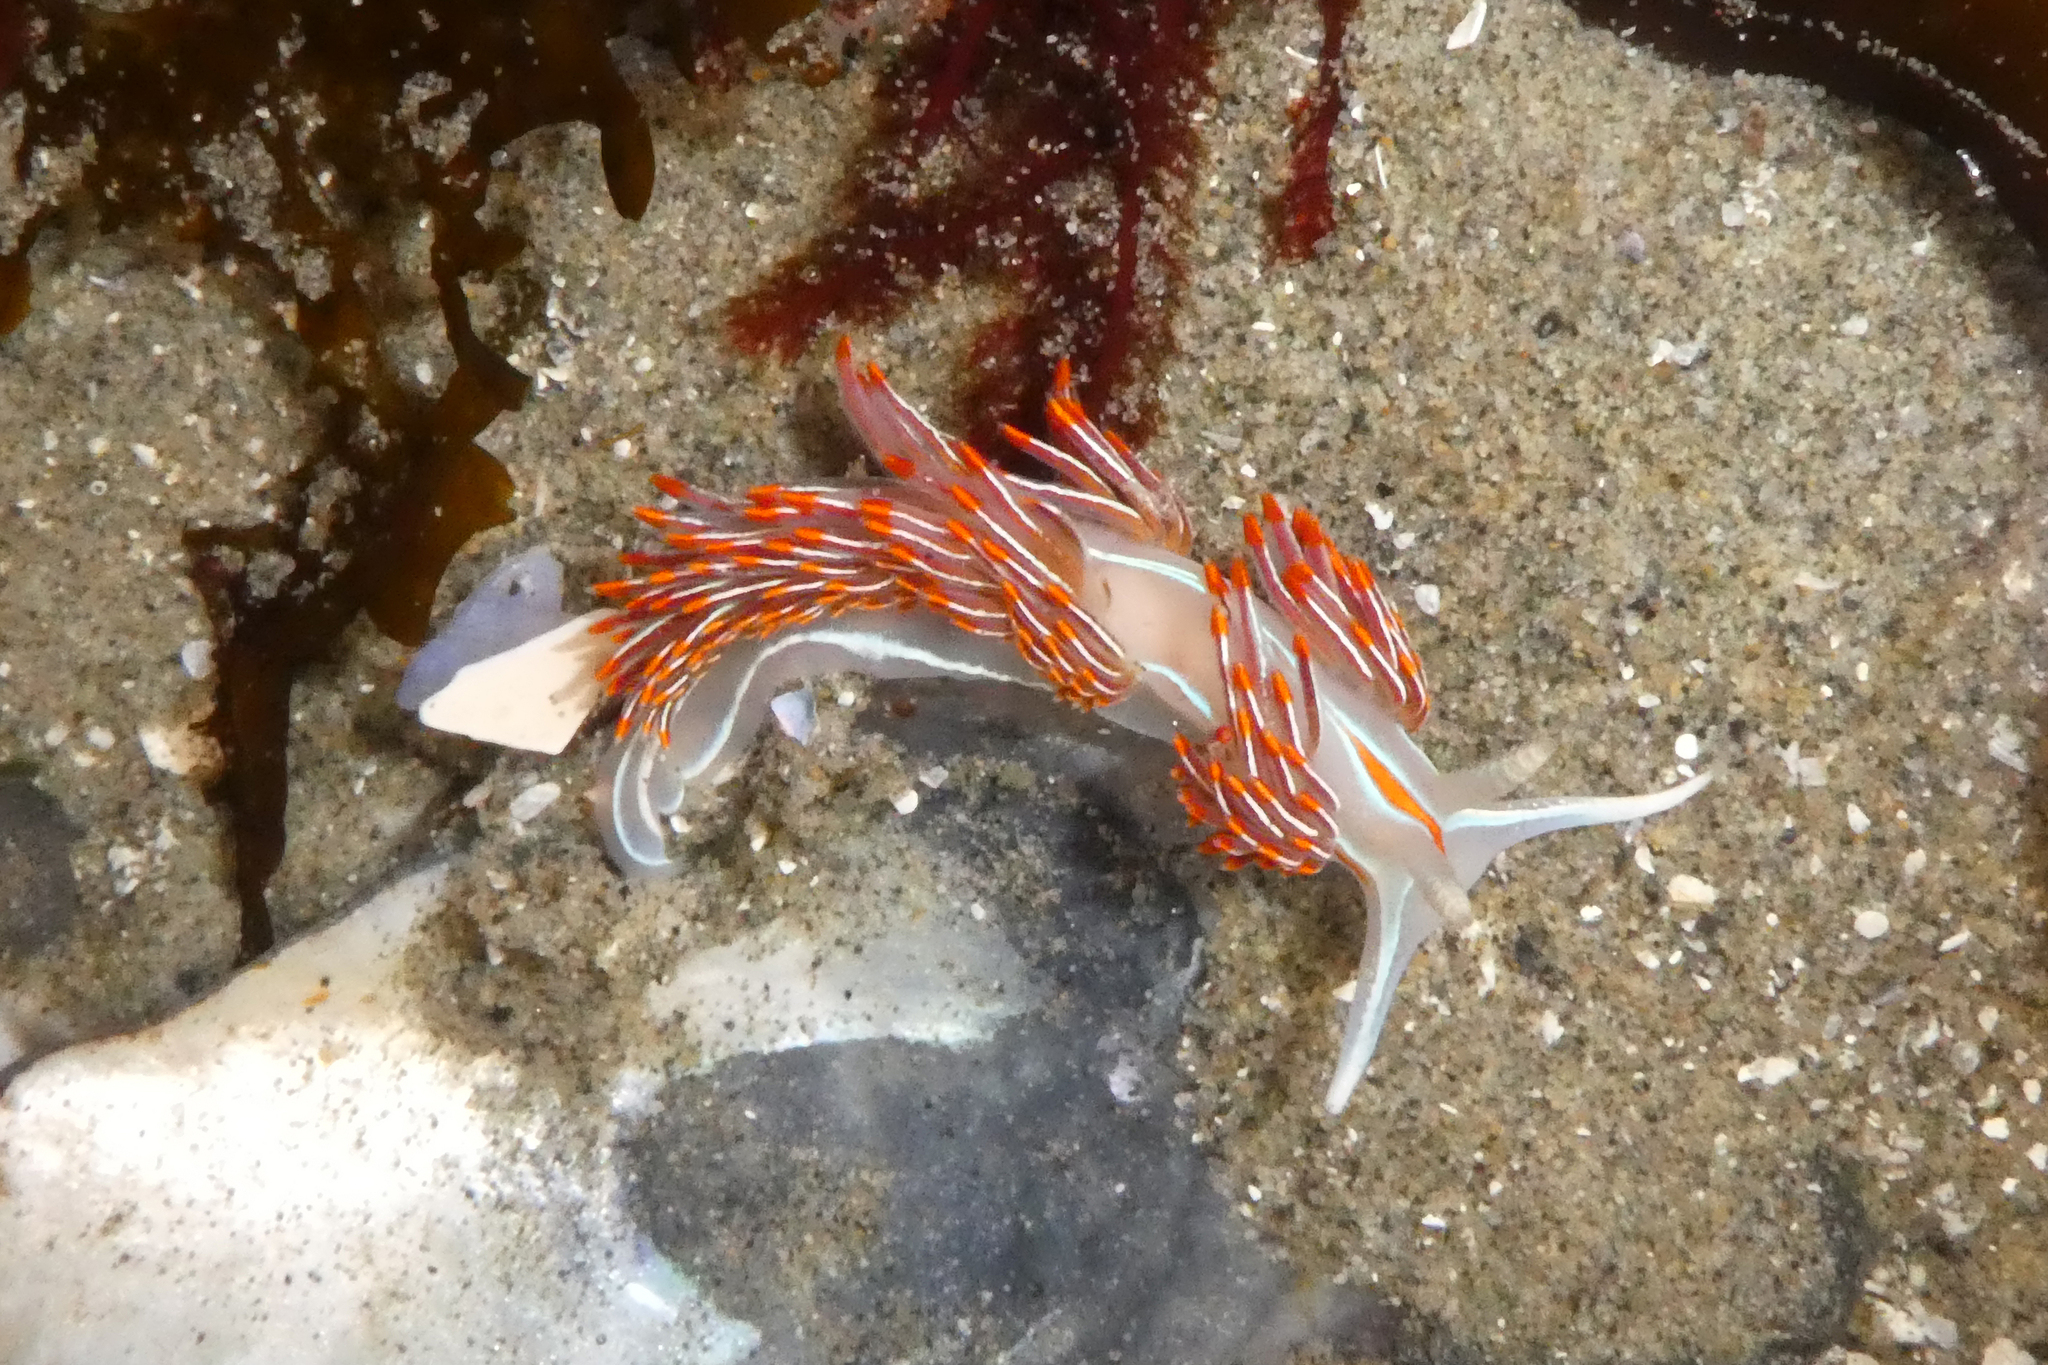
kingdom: Animalia
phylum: Mollusca
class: Gastropoda
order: Nudibranchia
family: Myrrhinidae
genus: Hermissenda
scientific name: Hermissenda crassicornis
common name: Hermissenda
